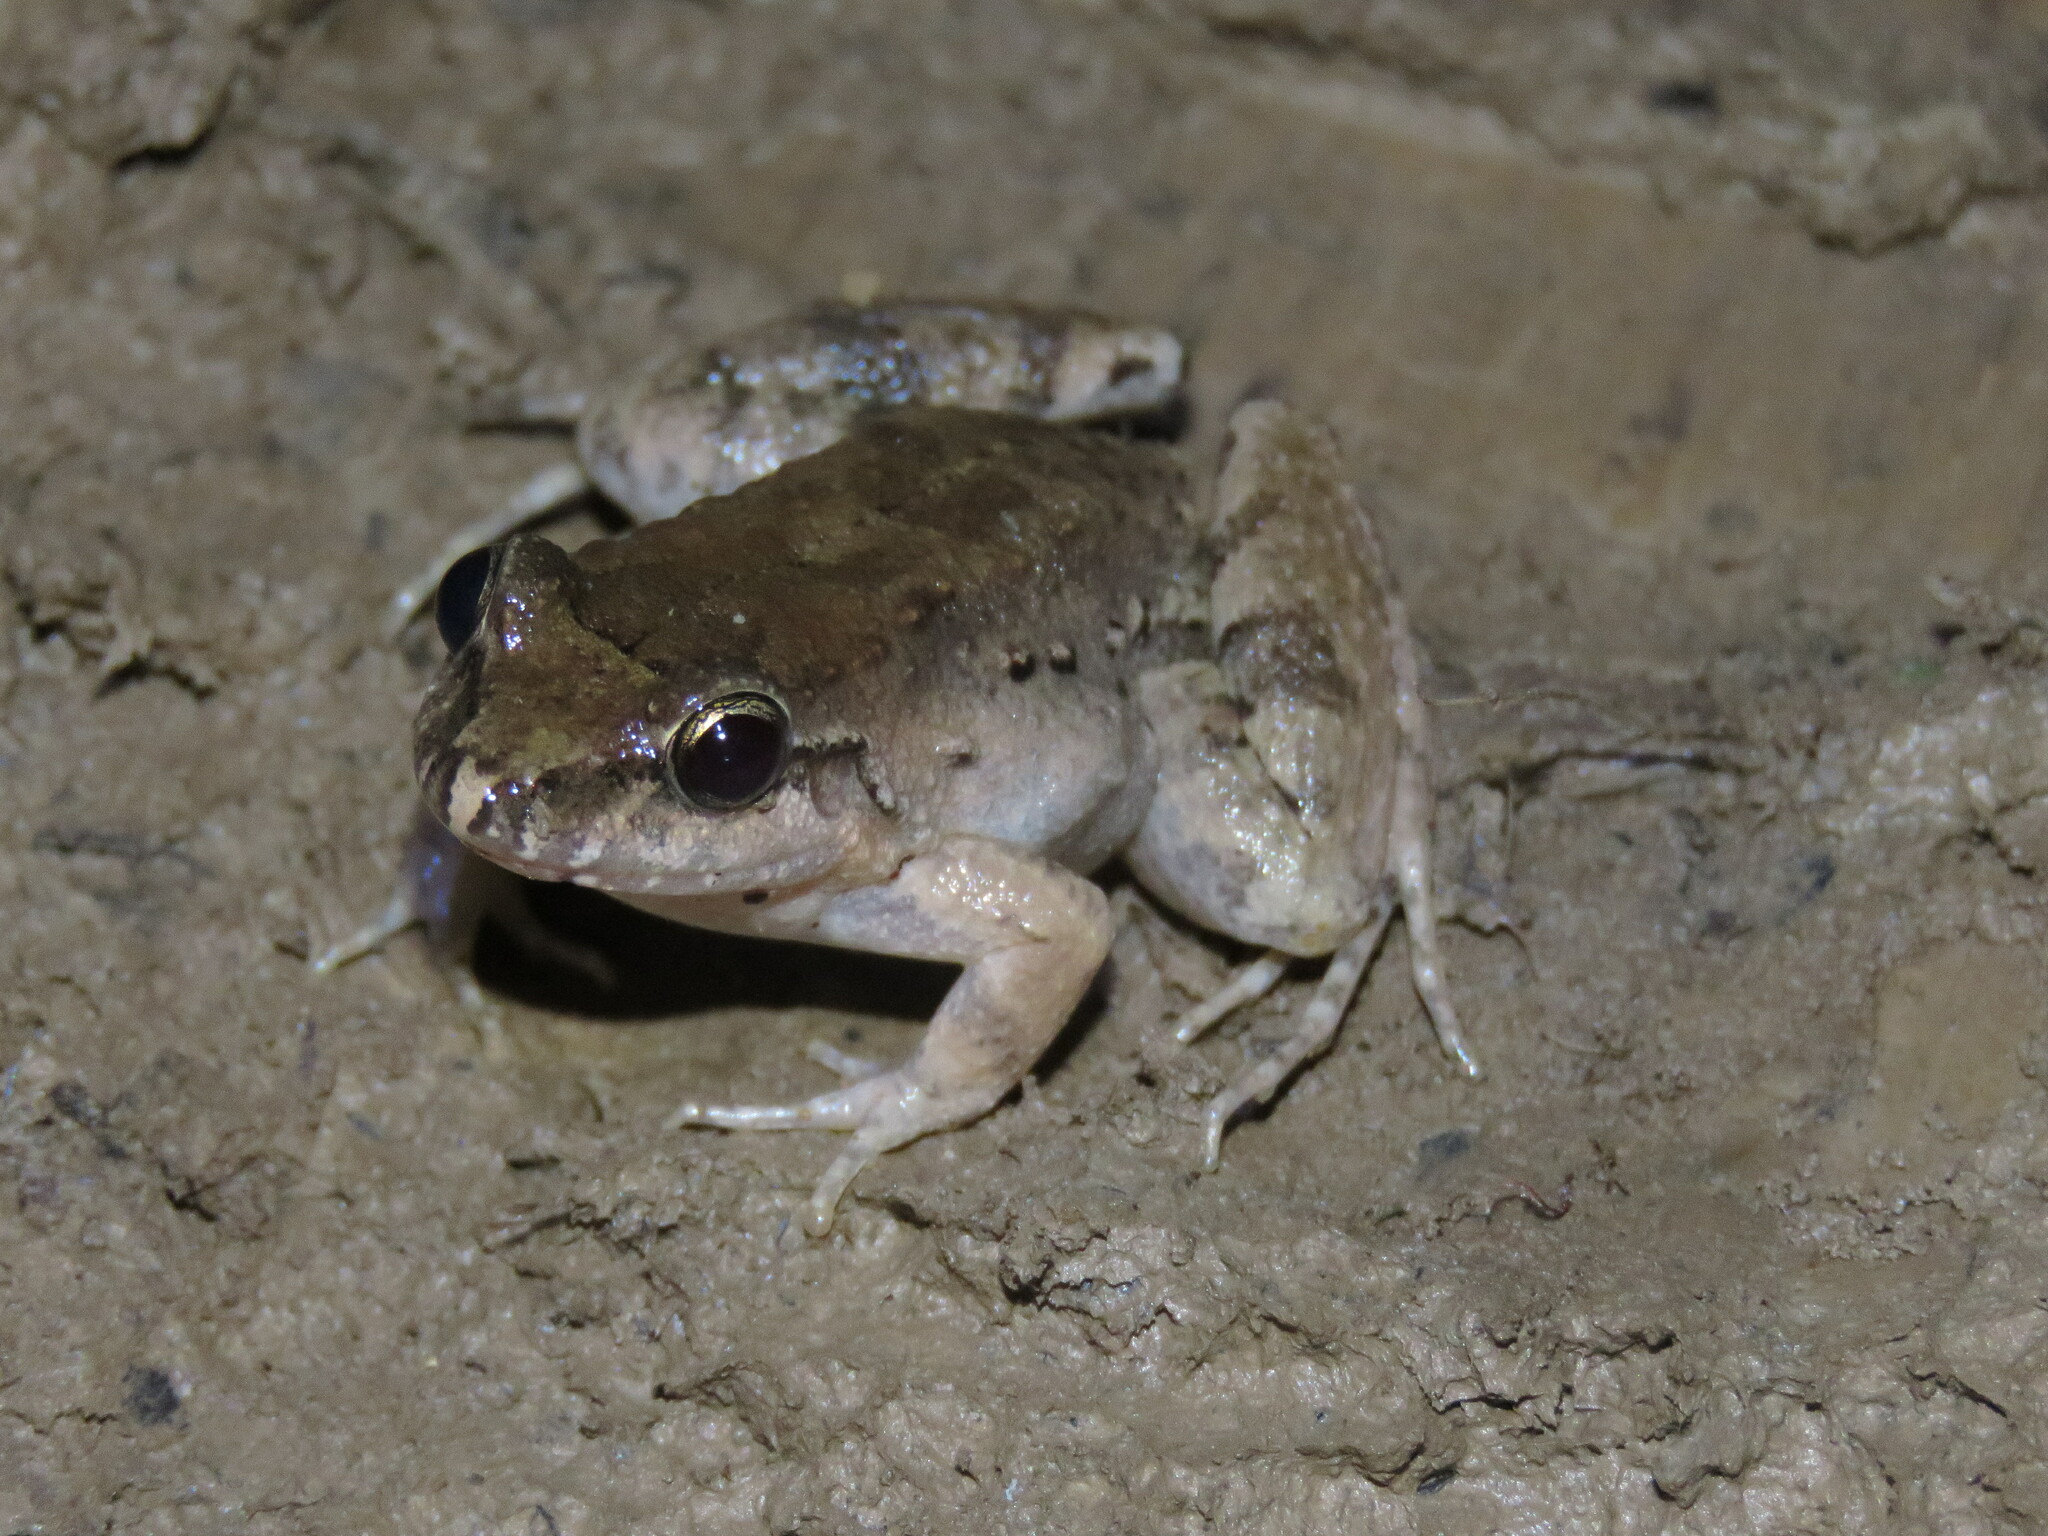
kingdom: Animalia
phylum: Chordata
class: Amphibia
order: Anura
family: Leptodactylidae
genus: Leptodactylus
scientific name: Leptodactylus leptodactyloides
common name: Common thin-toed frog
